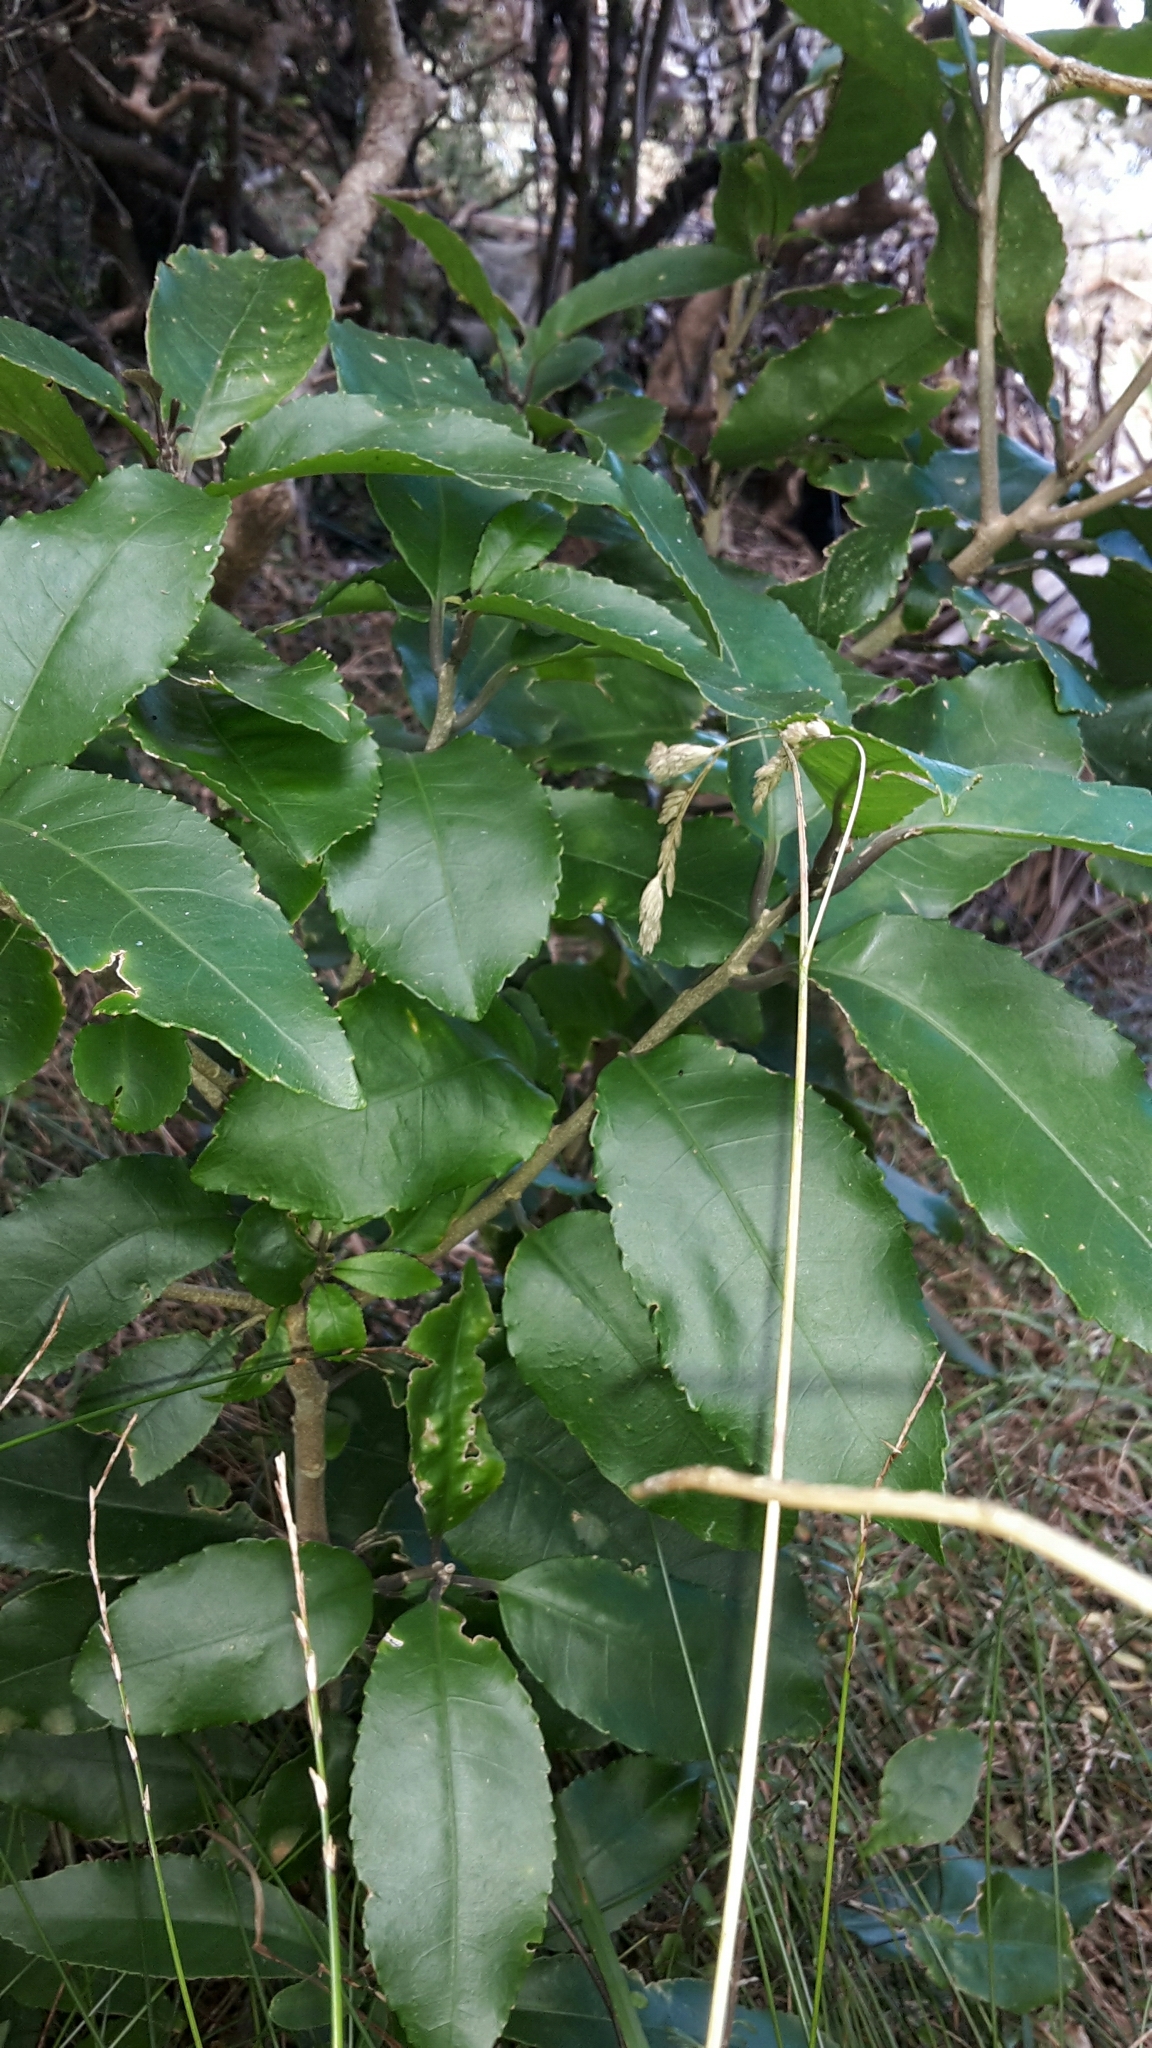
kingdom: Plantae
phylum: Tracheophyta
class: Magnoliopsida
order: Malpighiales
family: Violaceae
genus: Melicytus
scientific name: Melicytus ramiflorus
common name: Mahoe
